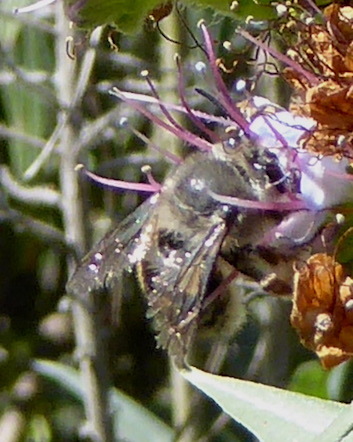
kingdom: Animalia
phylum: Arthropoda
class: Insecta
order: Hymenoptera
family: Apidae
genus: Habropoda
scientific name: Habropoda depressa
